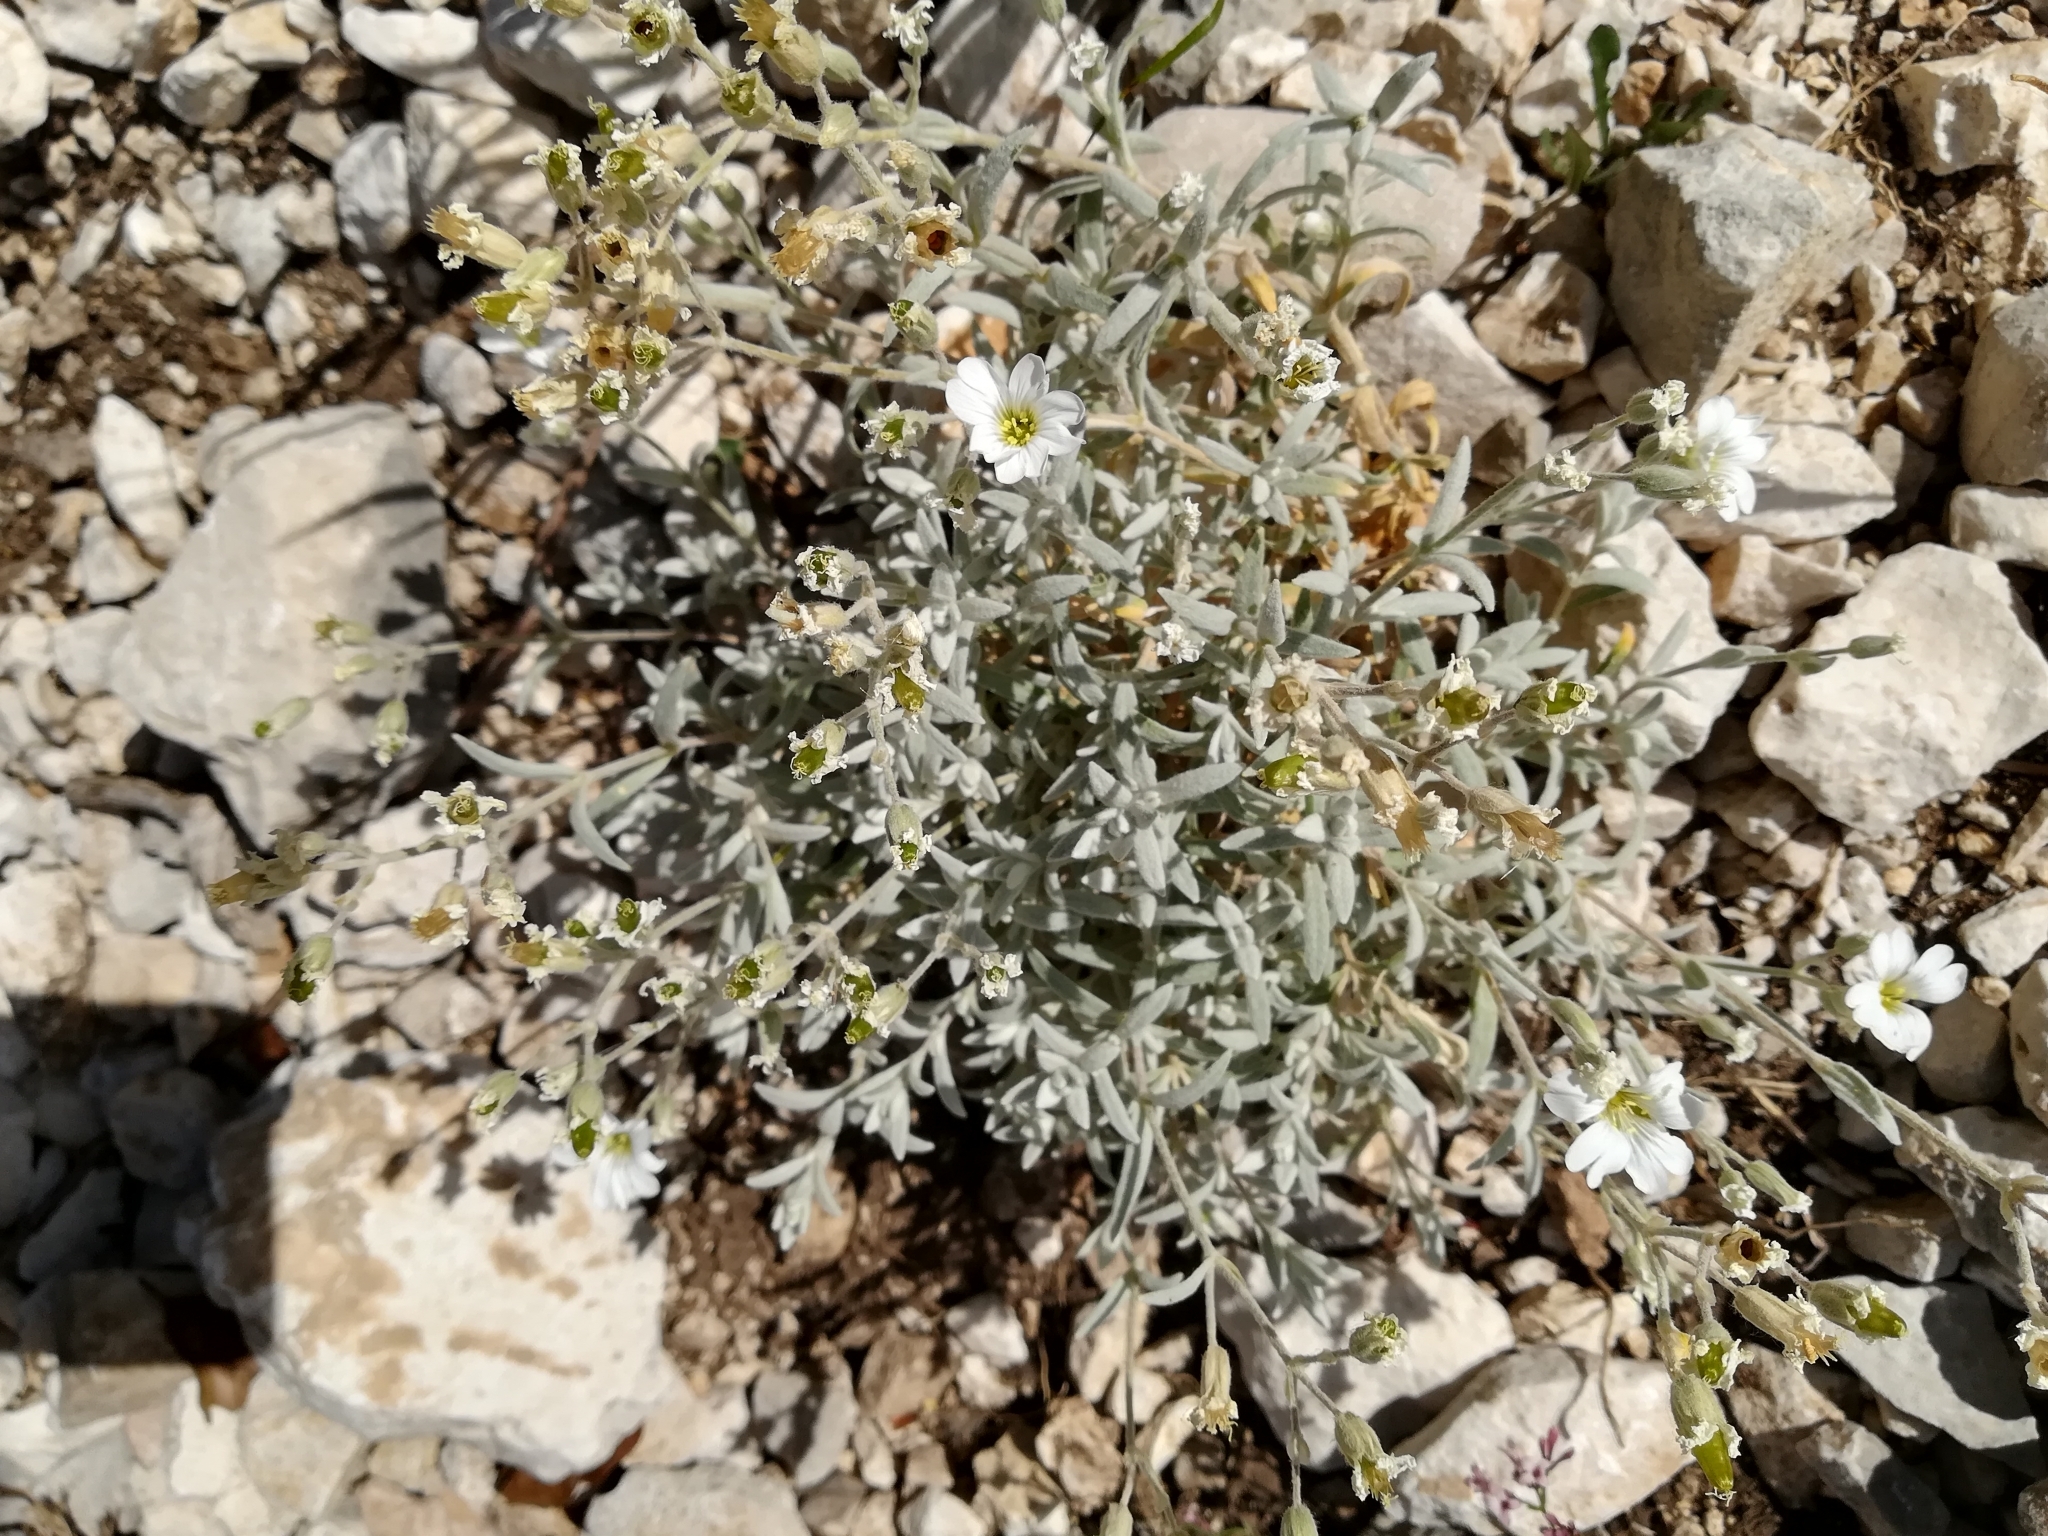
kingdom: Plantae
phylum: Tracheophyta
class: Magnoliopsida
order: Caryophyllales
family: Caryophyllaceae
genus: Cerastium
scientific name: Cerastium tomentosum
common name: Snow-in-summer
